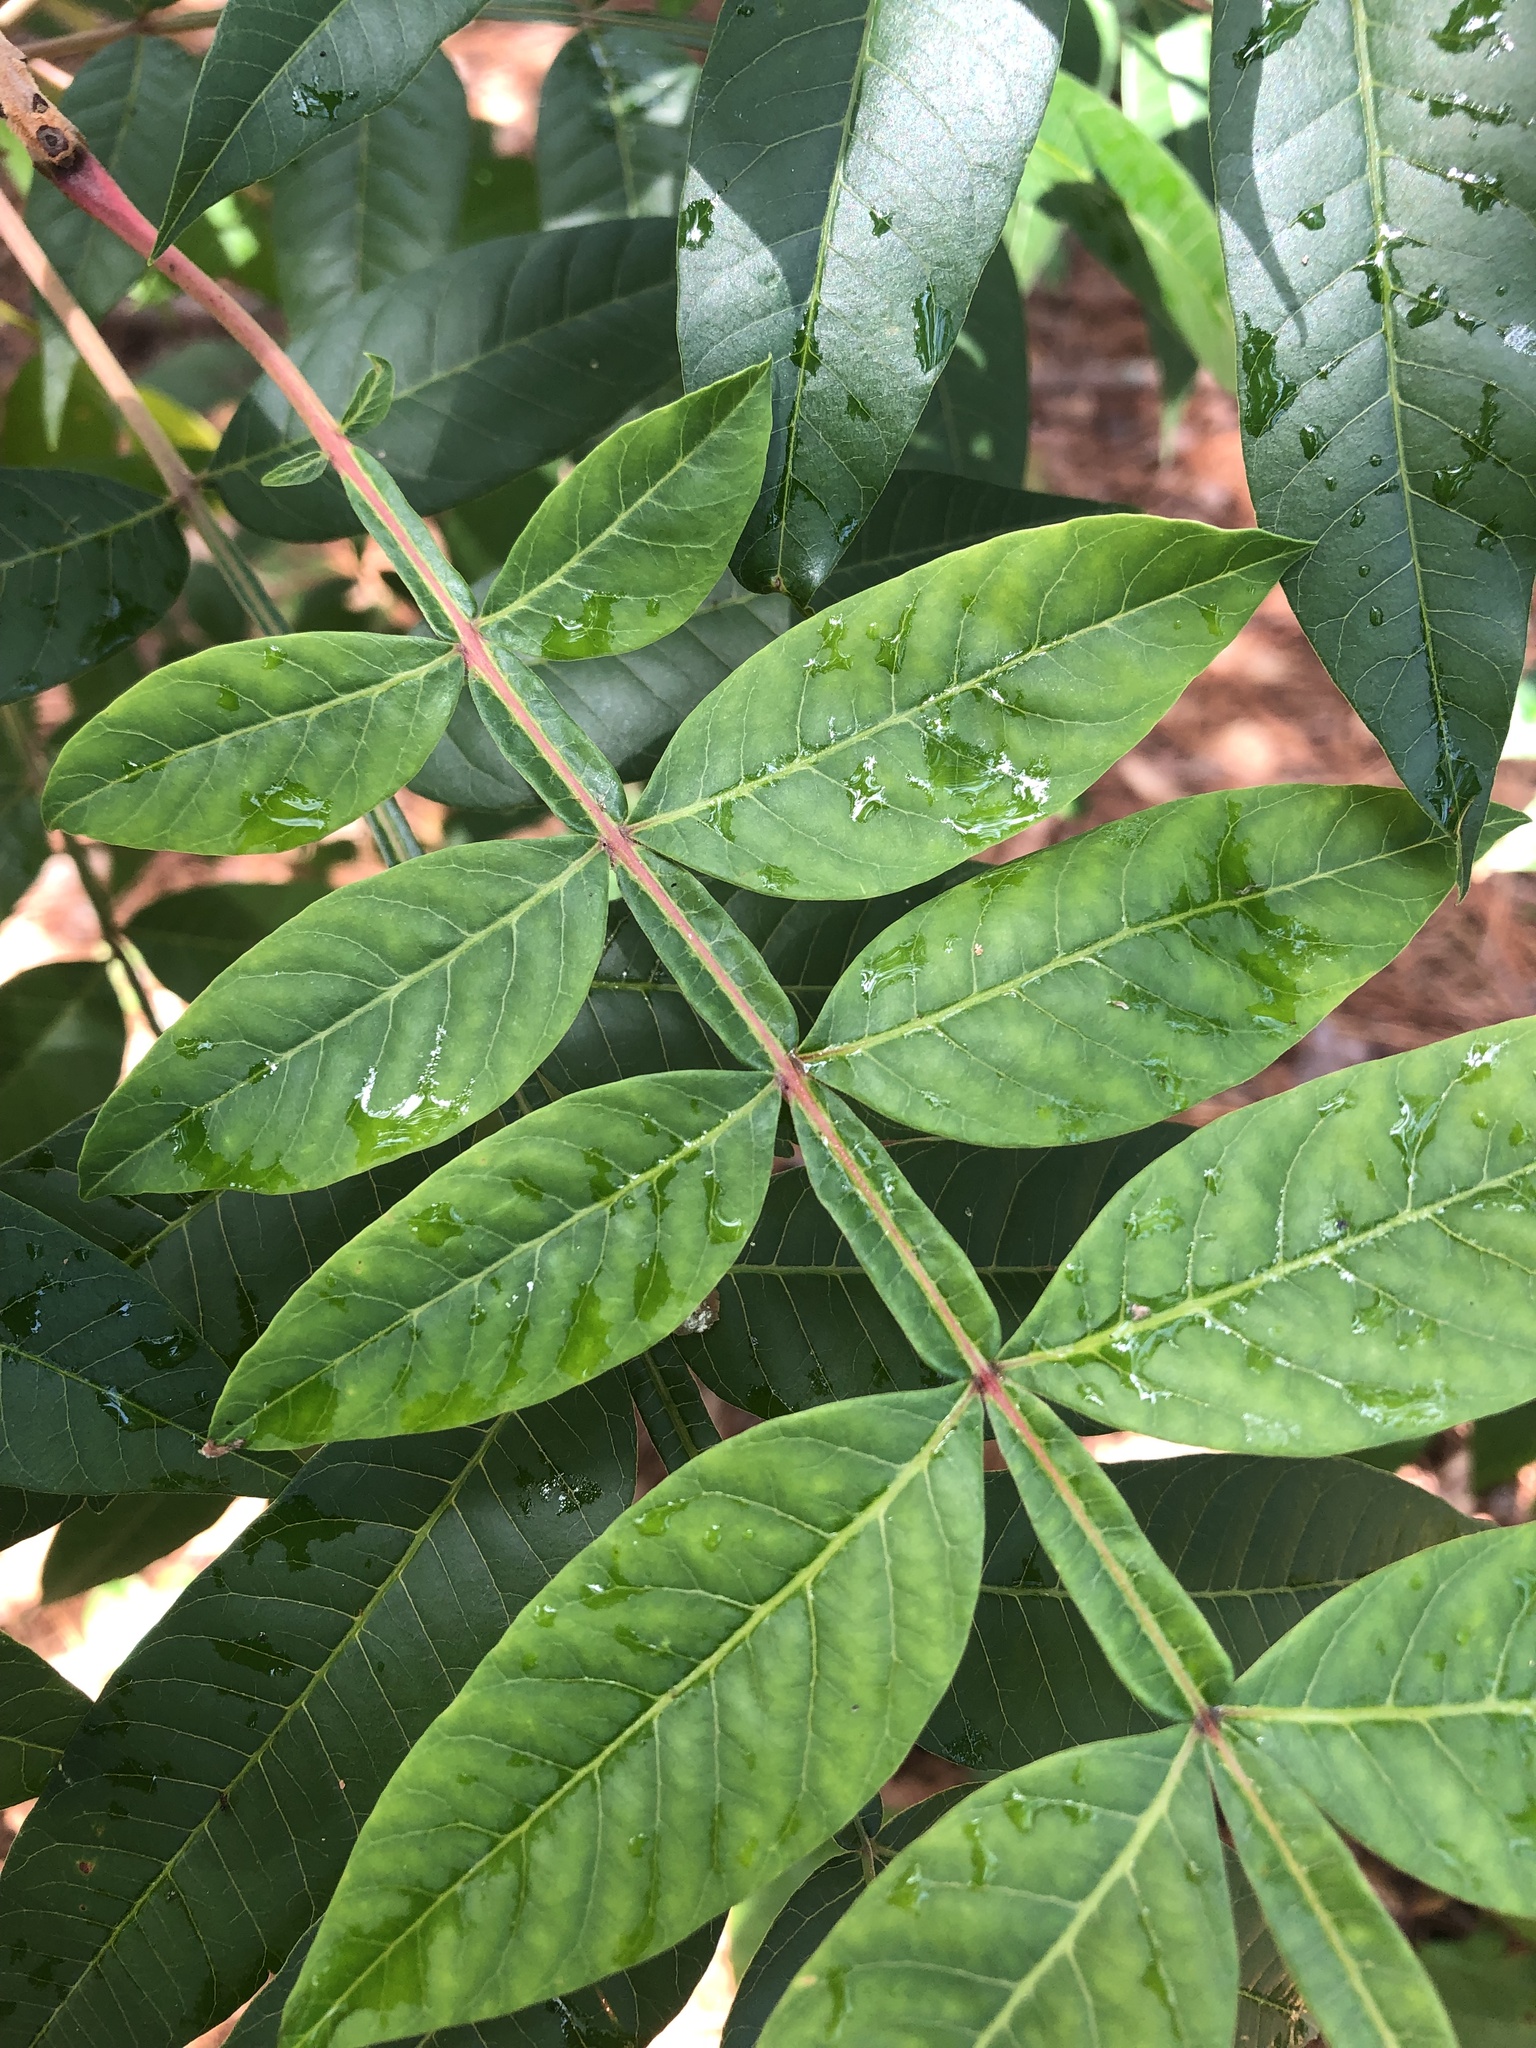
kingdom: Plantae
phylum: Tracheophyta
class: Magnoliopsida
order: Sapindales
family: Anacardiaceae
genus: Rhus
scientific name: Rhus copallina
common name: Shining sumac
